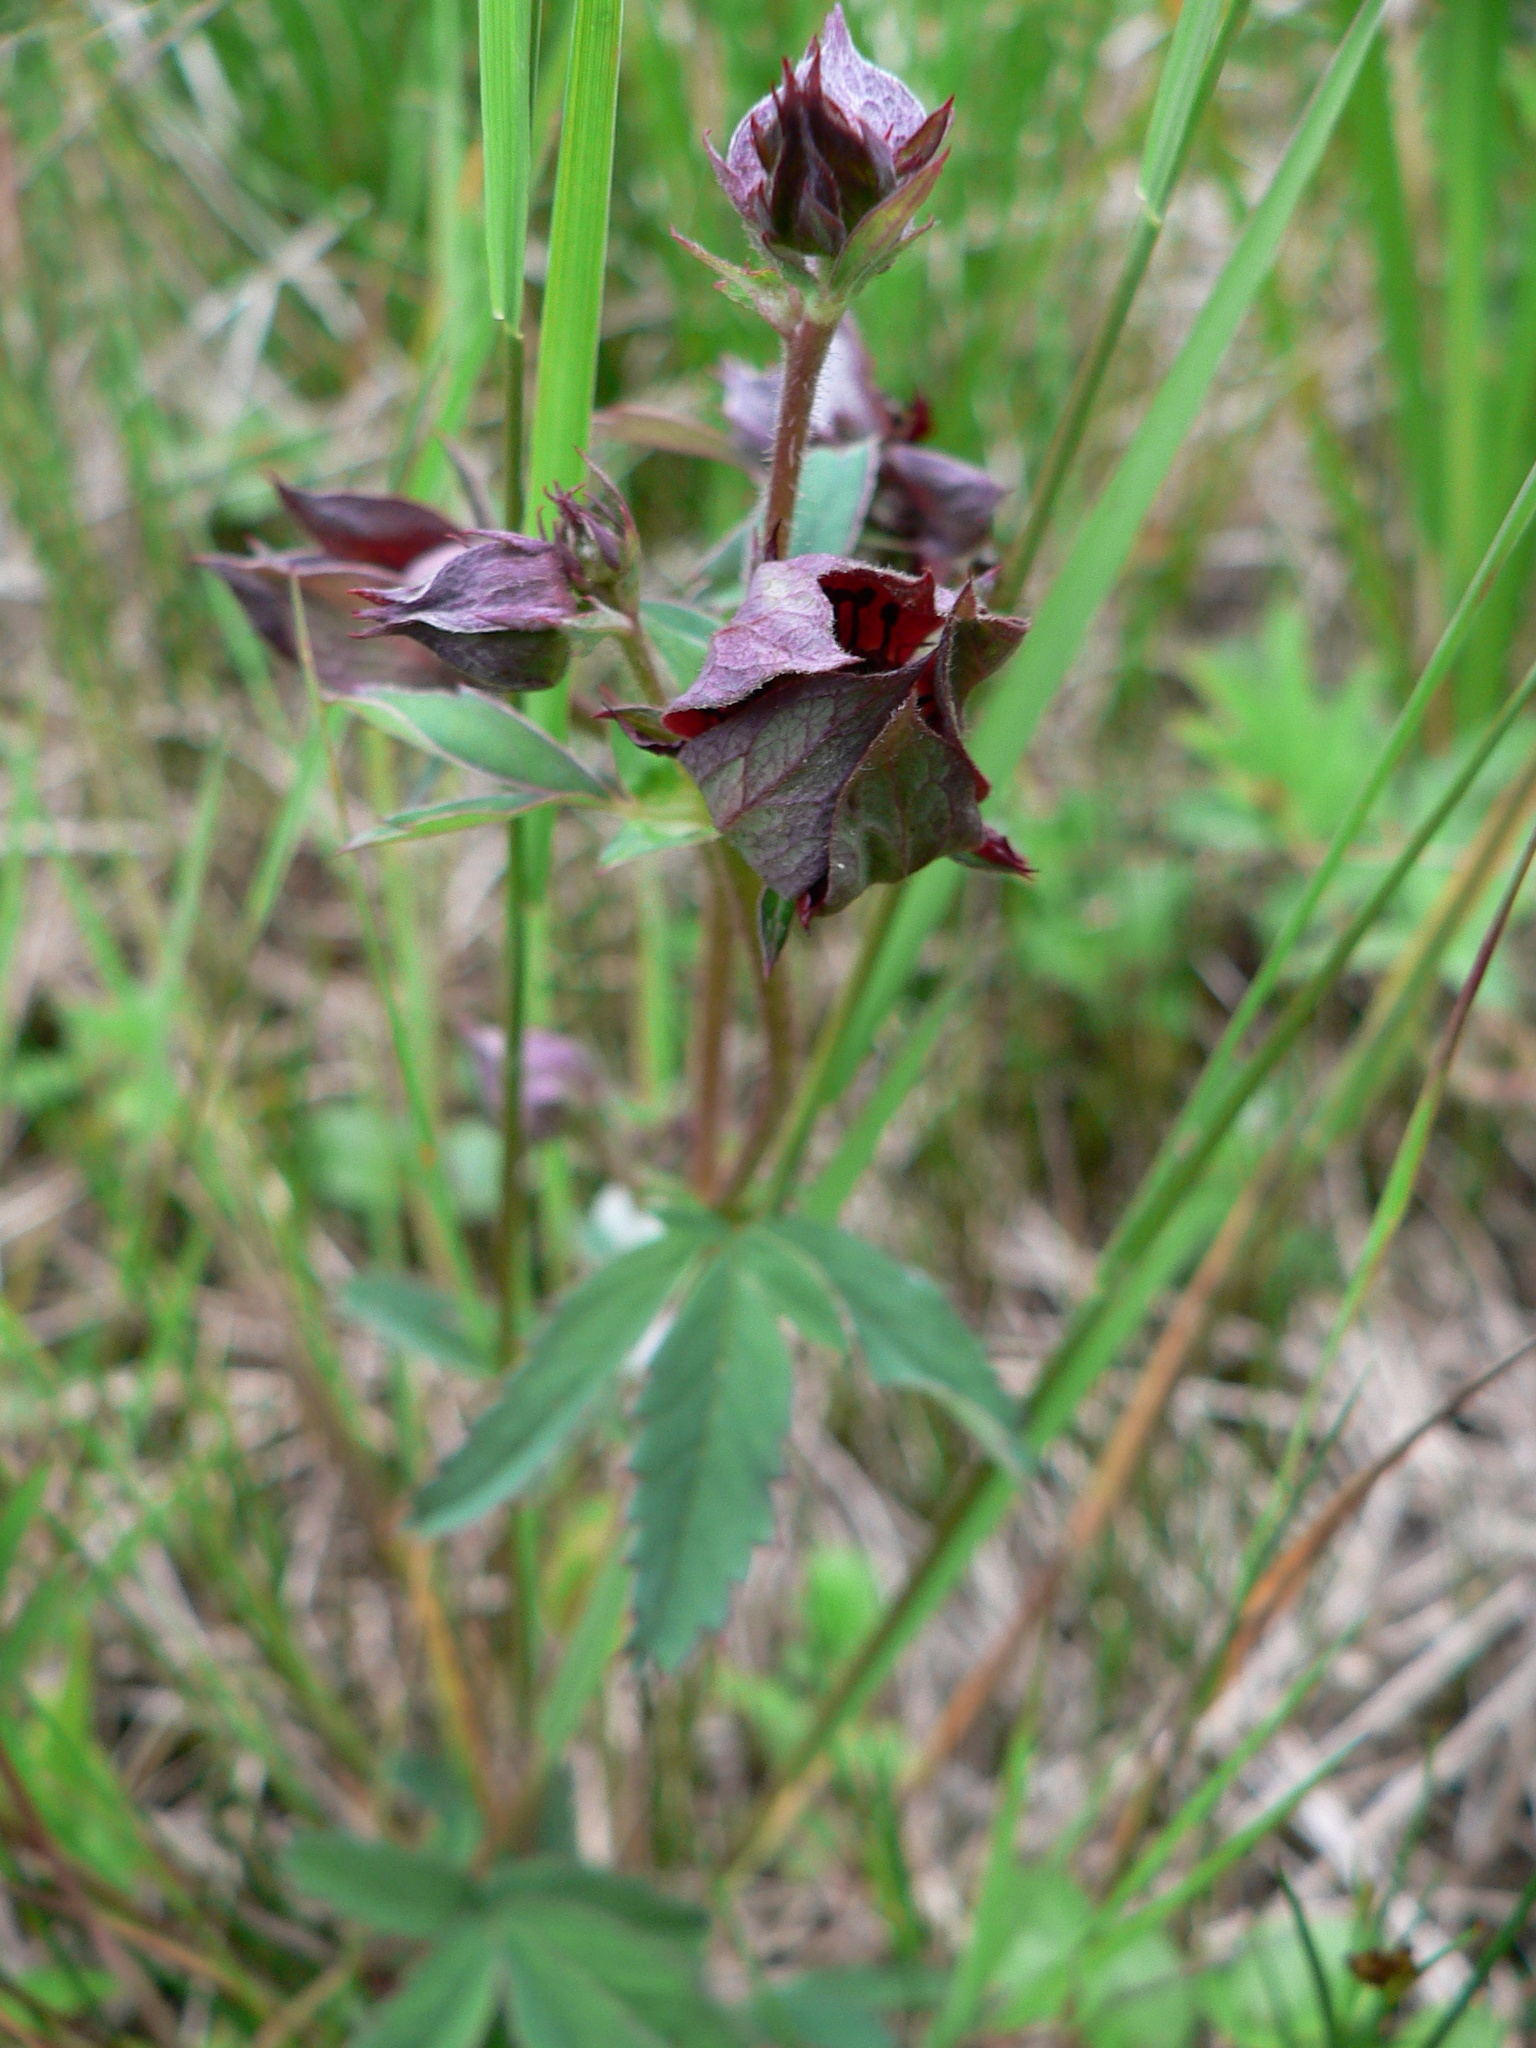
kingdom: Plantae
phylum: Tracheophyta
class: Magnoliopsida
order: Rosales
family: Rosaceae
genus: Comarum
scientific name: Comarum palustre
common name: Marsh cinquefoil
